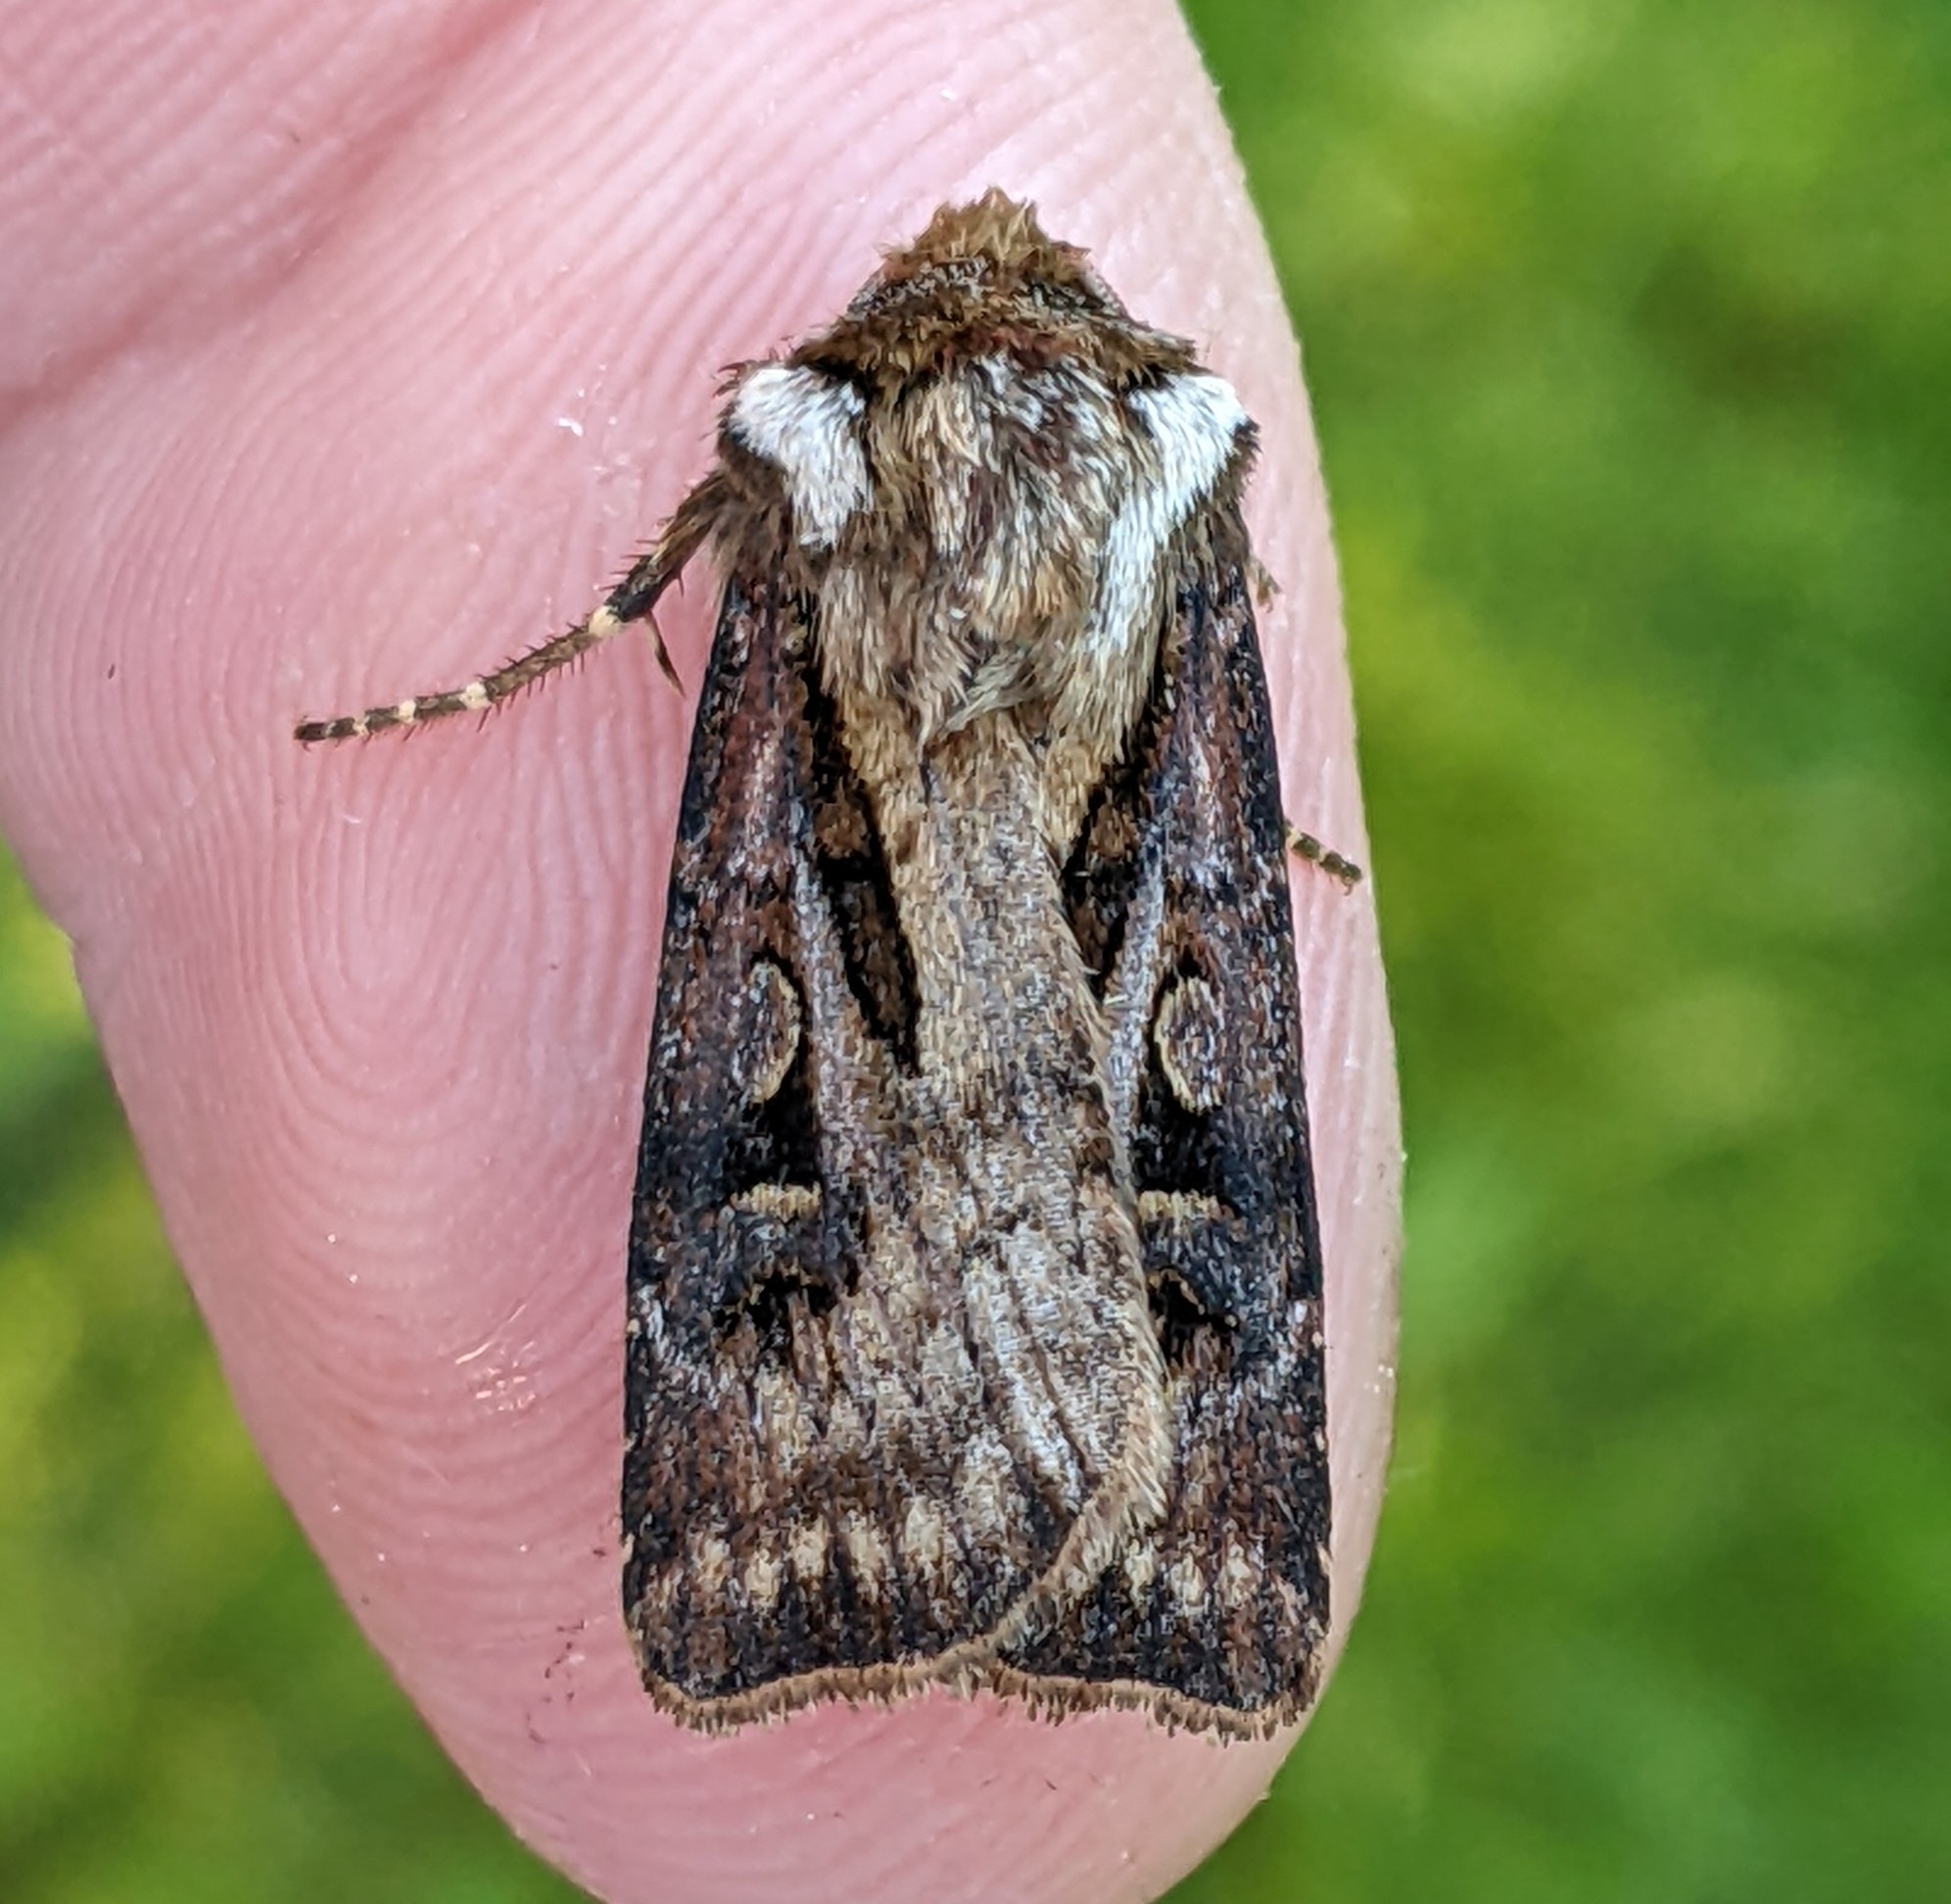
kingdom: Animalia
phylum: Arthropoda
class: Insecta
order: Lepidoptera
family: Noctuidae
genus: Agrotis
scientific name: Agrotis vancouverensis
